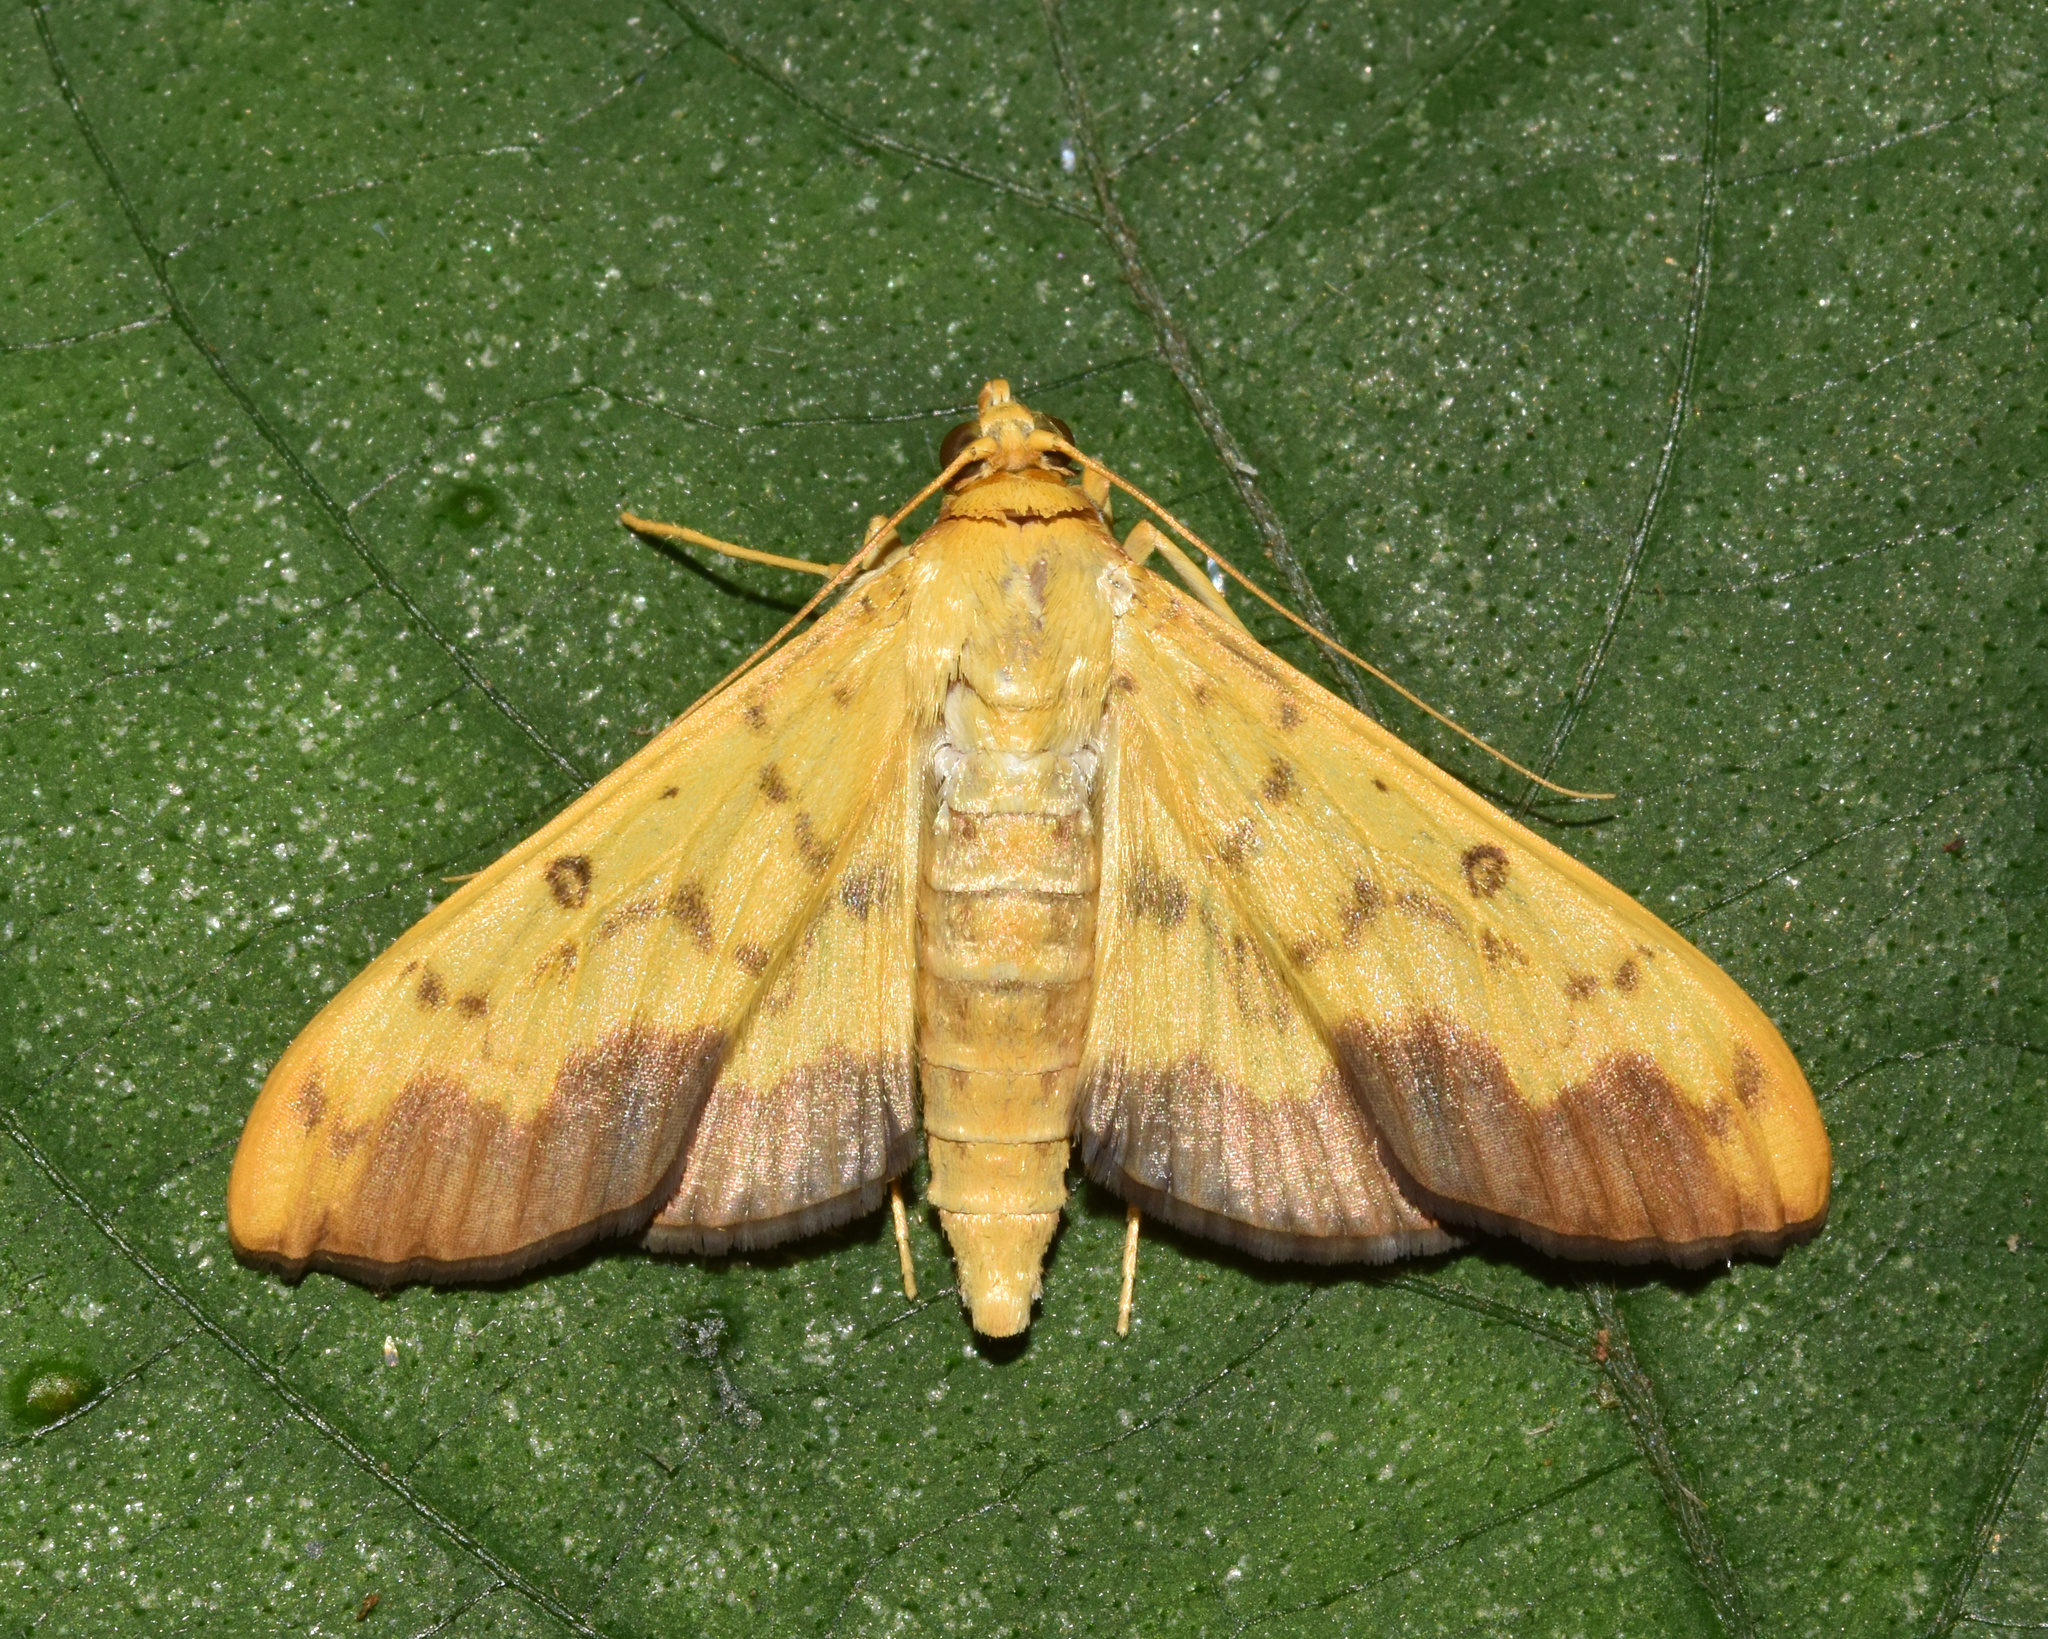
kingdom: Animalia
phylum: Arthropoda
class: Insecta
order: Lepidoptera
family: Crambidae
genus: Botyodes
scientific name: Botyodes asialis
